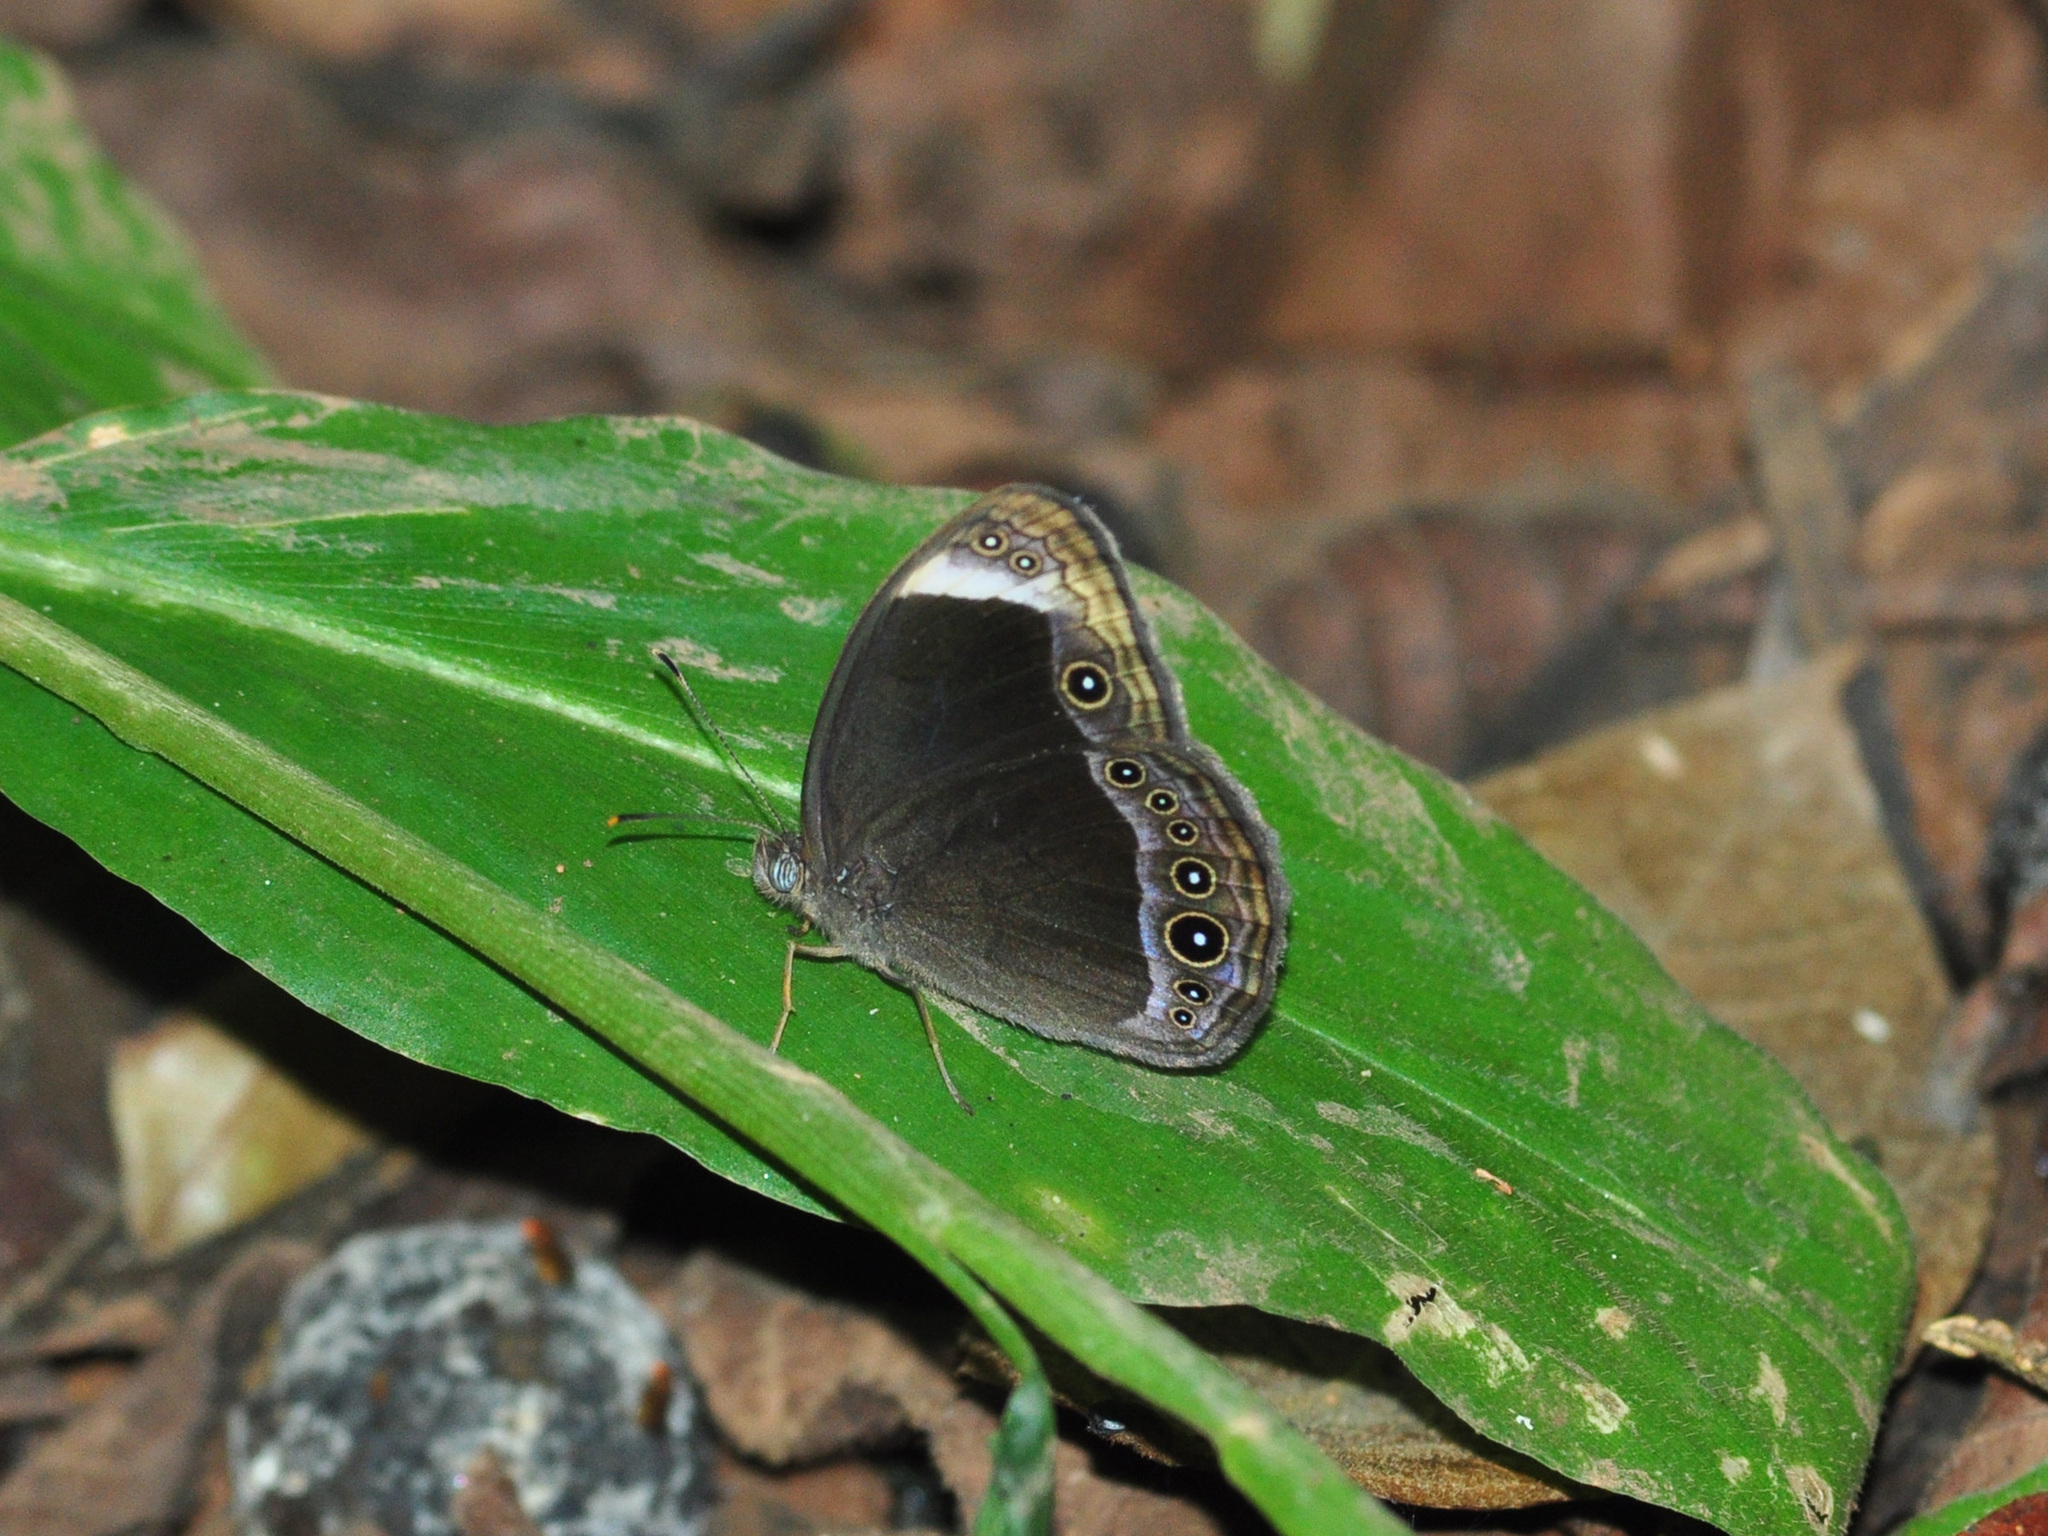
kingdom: Animalia
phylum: Arthropoda
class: Insecta
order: Lepidoptera
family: Nymphalidae
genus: Mycalesis
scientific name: Mycalesis anaxias
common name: White-bar bushbrown
